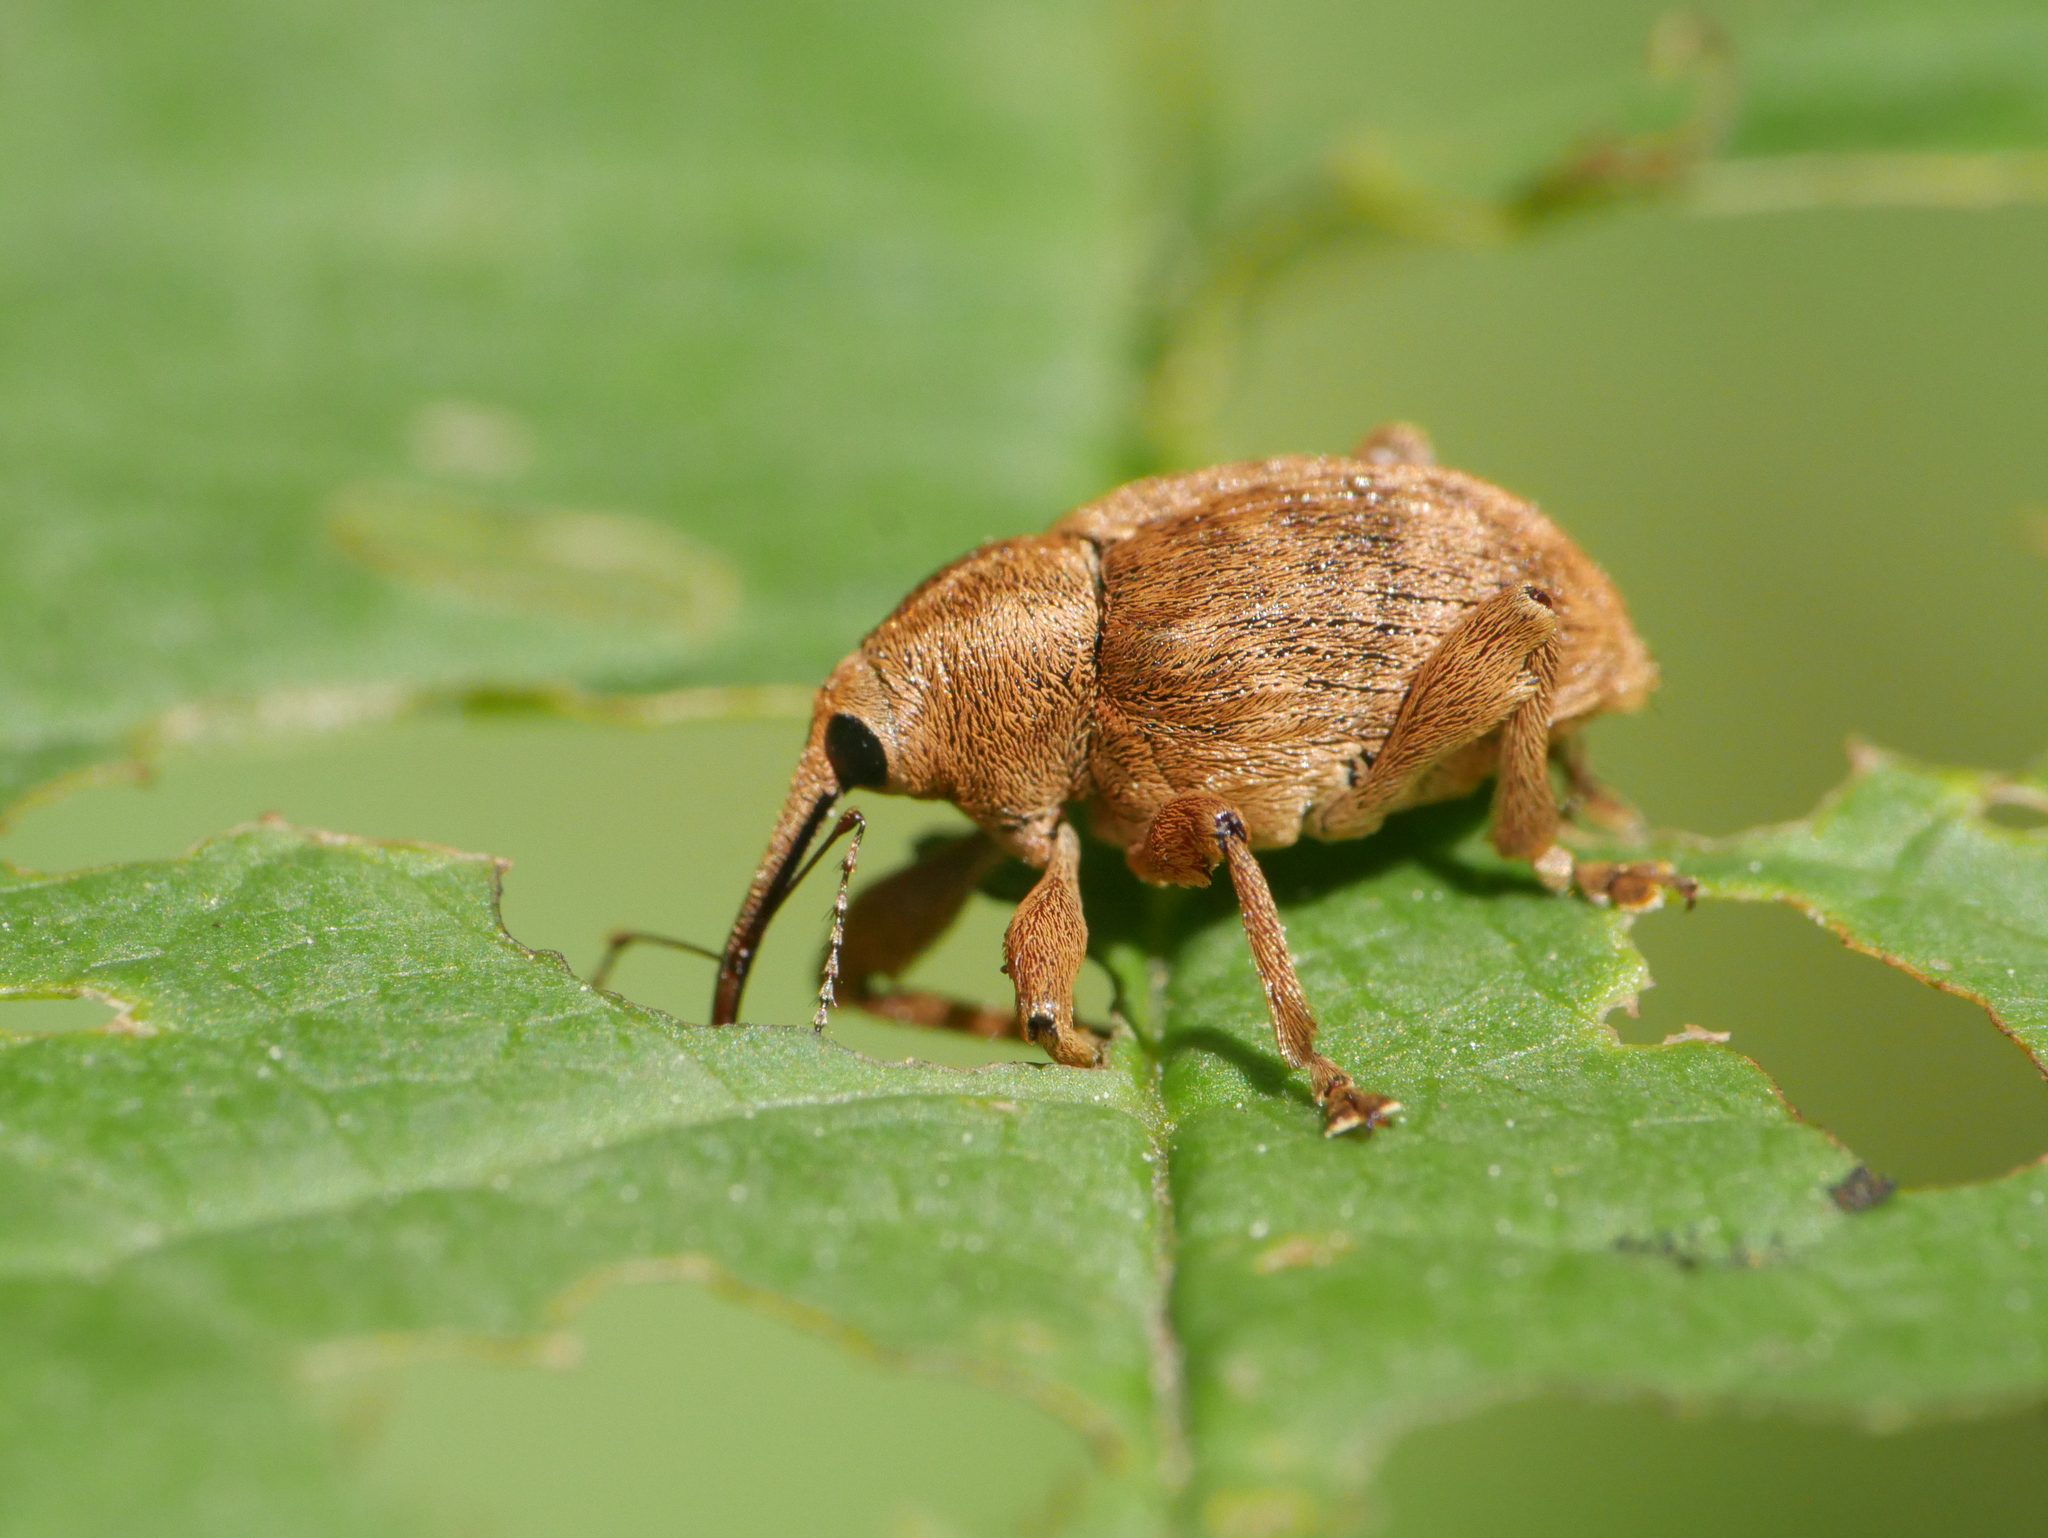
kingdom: Animalia
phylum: Arthropoda
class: Insecta
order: Coleoptera
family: Curculionidae
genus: Curculio
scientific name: Curculio venosus
